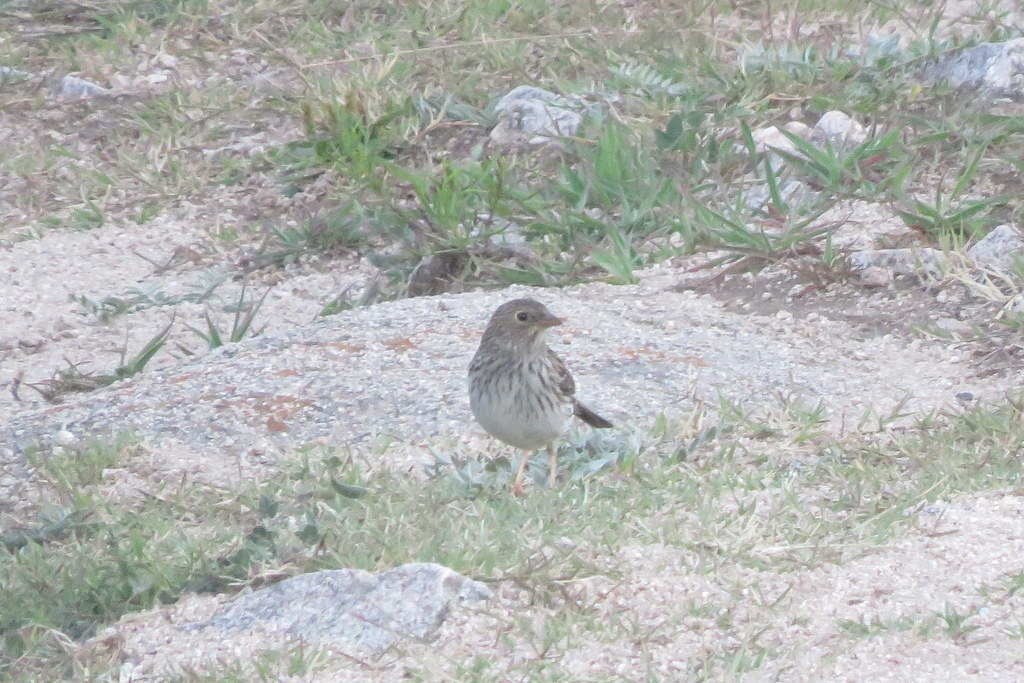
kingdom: Animalia
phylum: Chordata
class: Aves
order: Passeriformes
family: Thraupidae
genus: Porphyrospiza
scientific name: Porphyrospiza alaudina
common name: Band-tailed sierra finch
